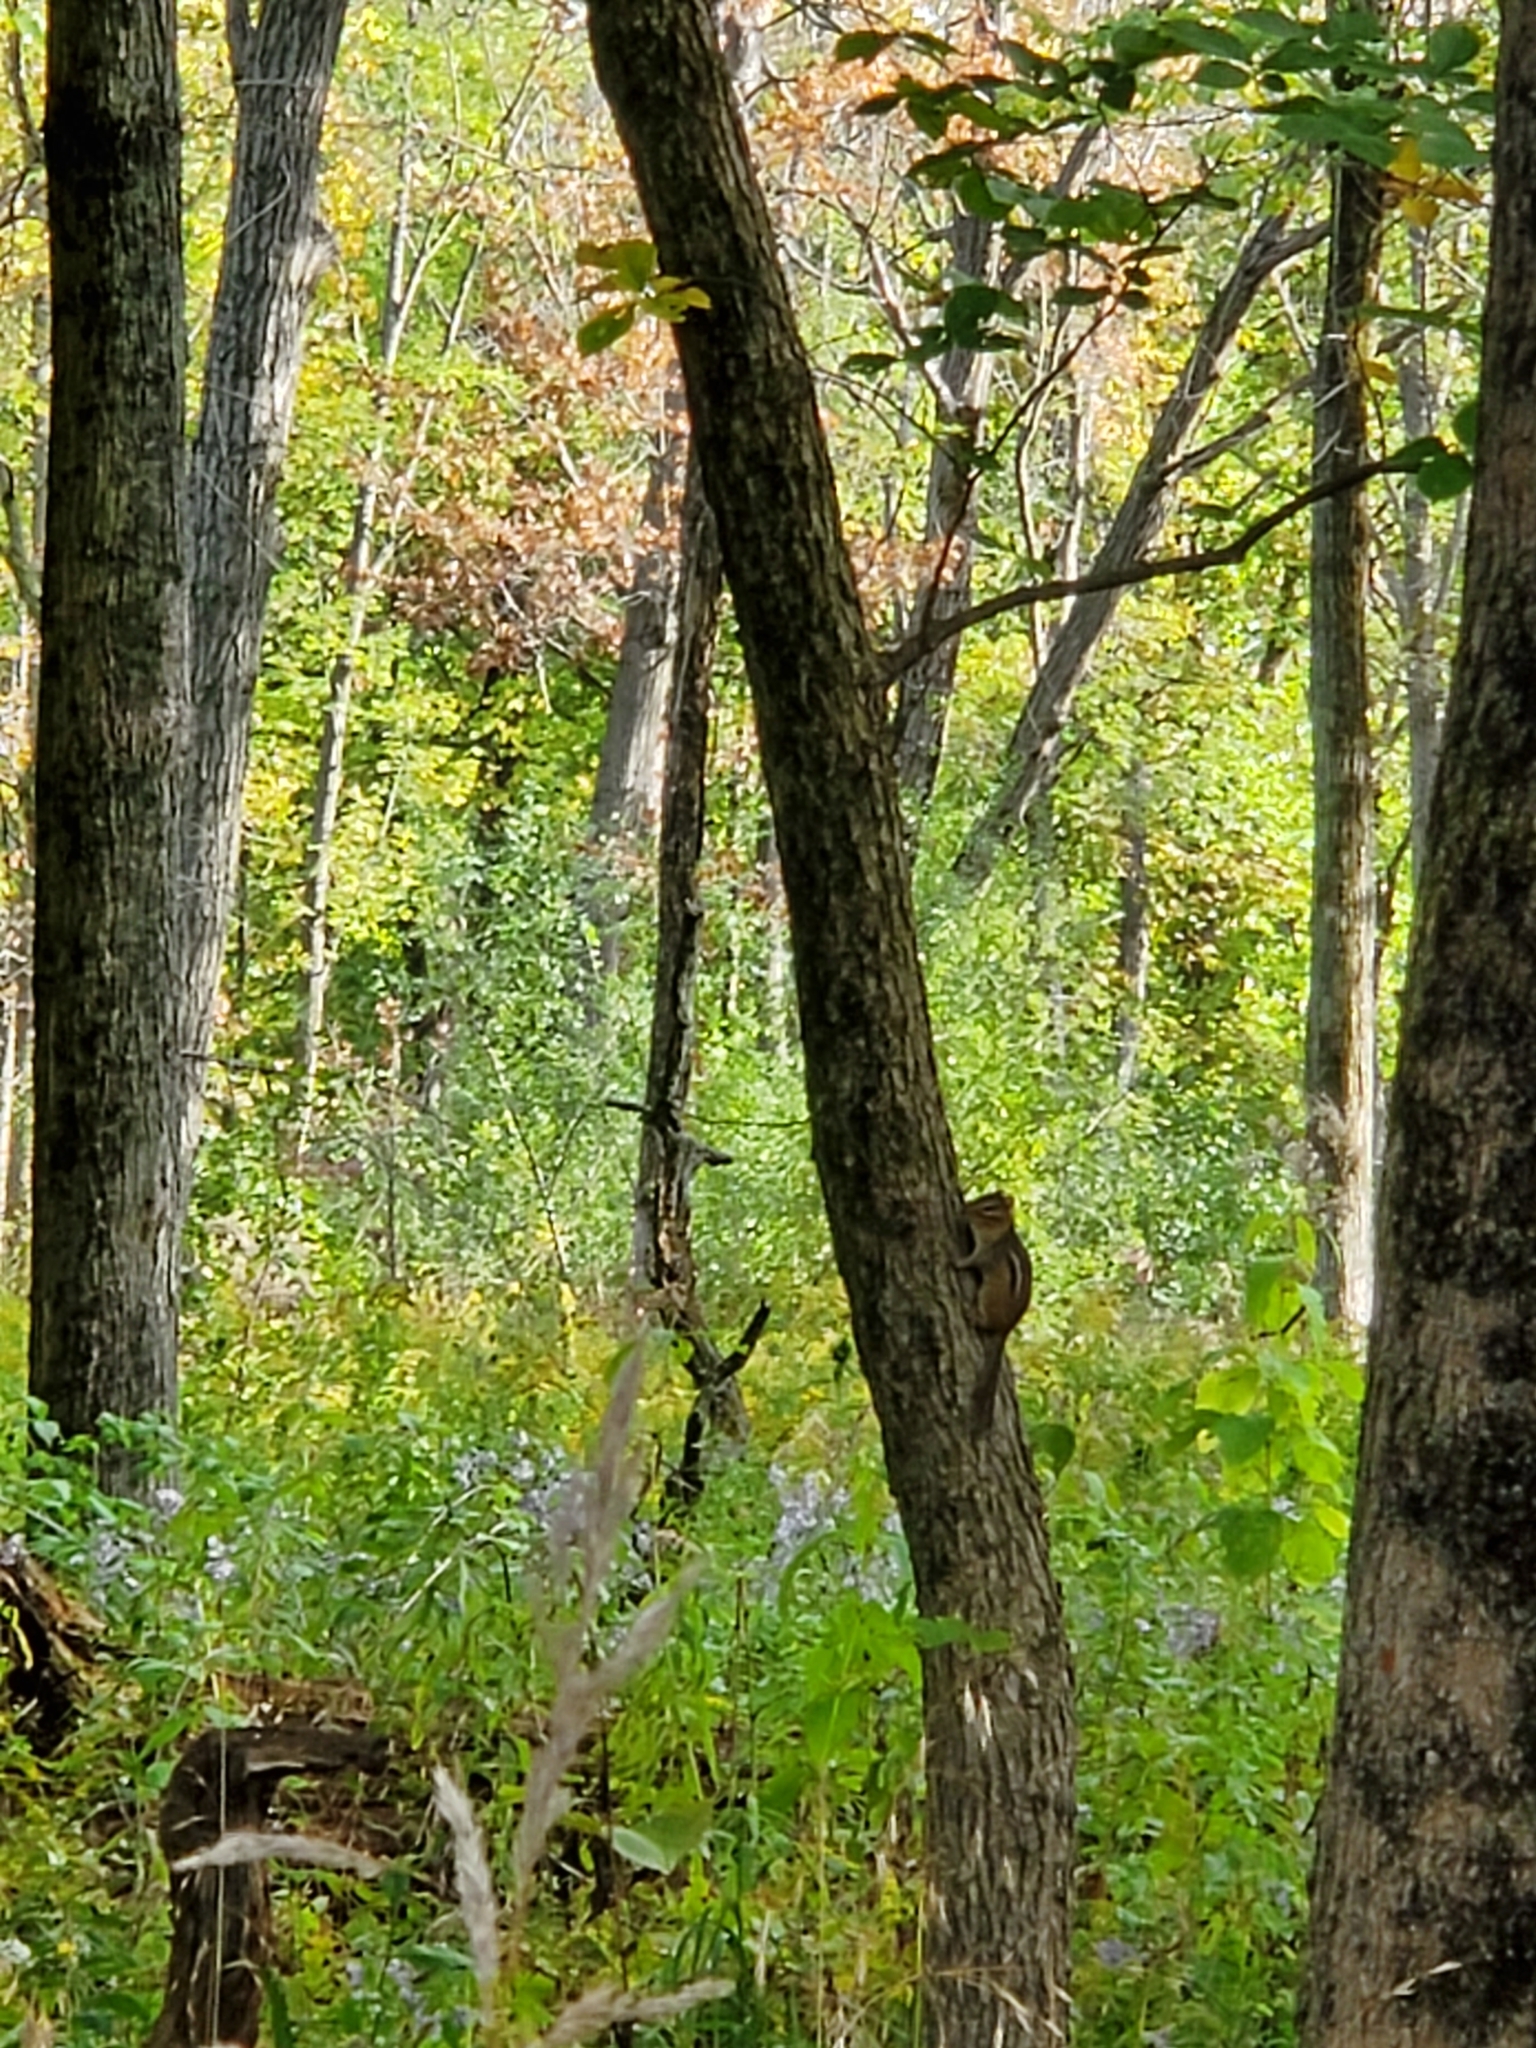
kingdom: Animalia
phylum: Chordata
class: Mammalia
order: Rodentia
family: Sciuridae
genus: Tamias
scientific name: Tamias striatus
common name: Eastern chipmunk
